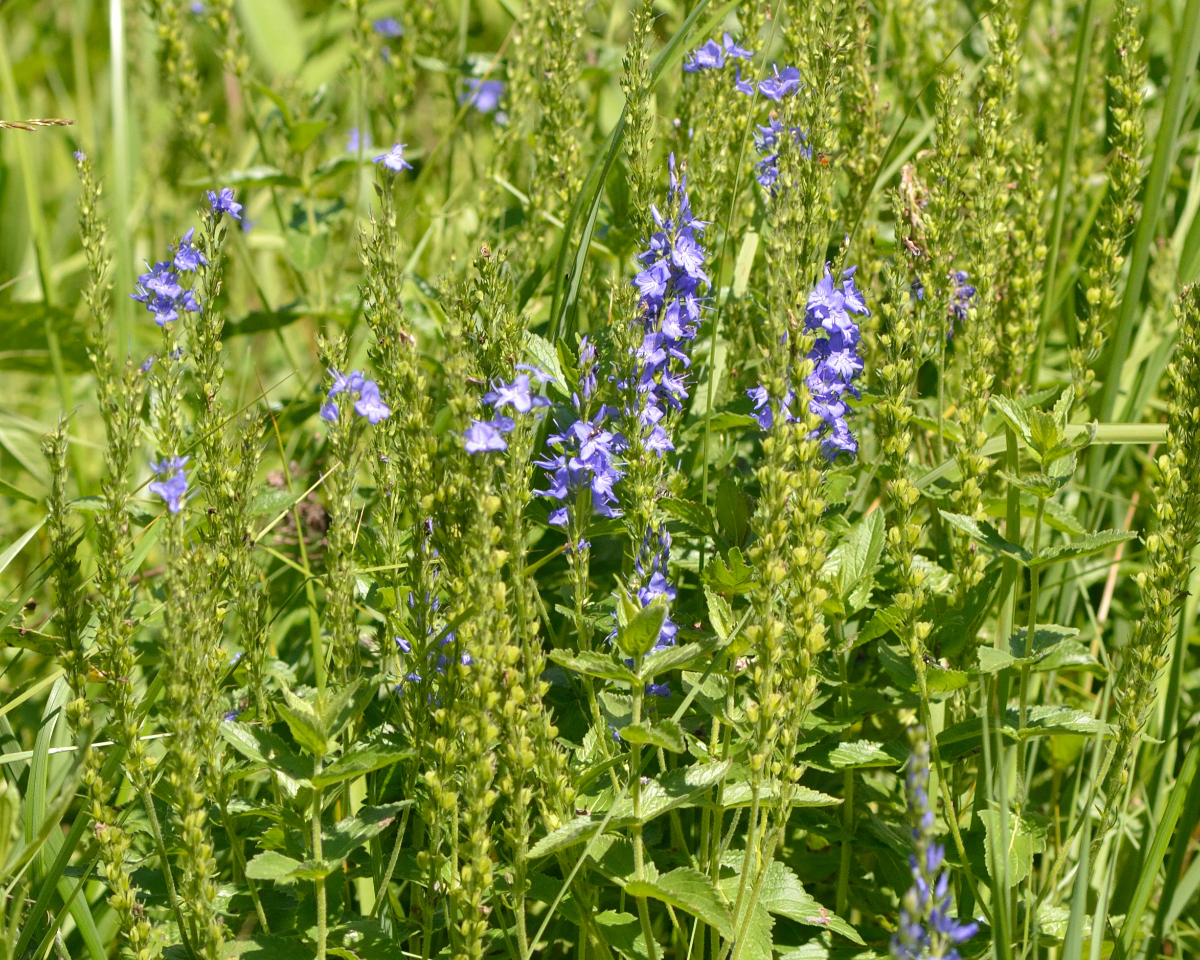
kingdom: Plantae
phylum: Tracheophyta
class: Magnoliopsida
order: Lamiales
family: Plantaginaceae
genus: Veronica
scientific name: Veronica teucrium
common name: Large speedwell
